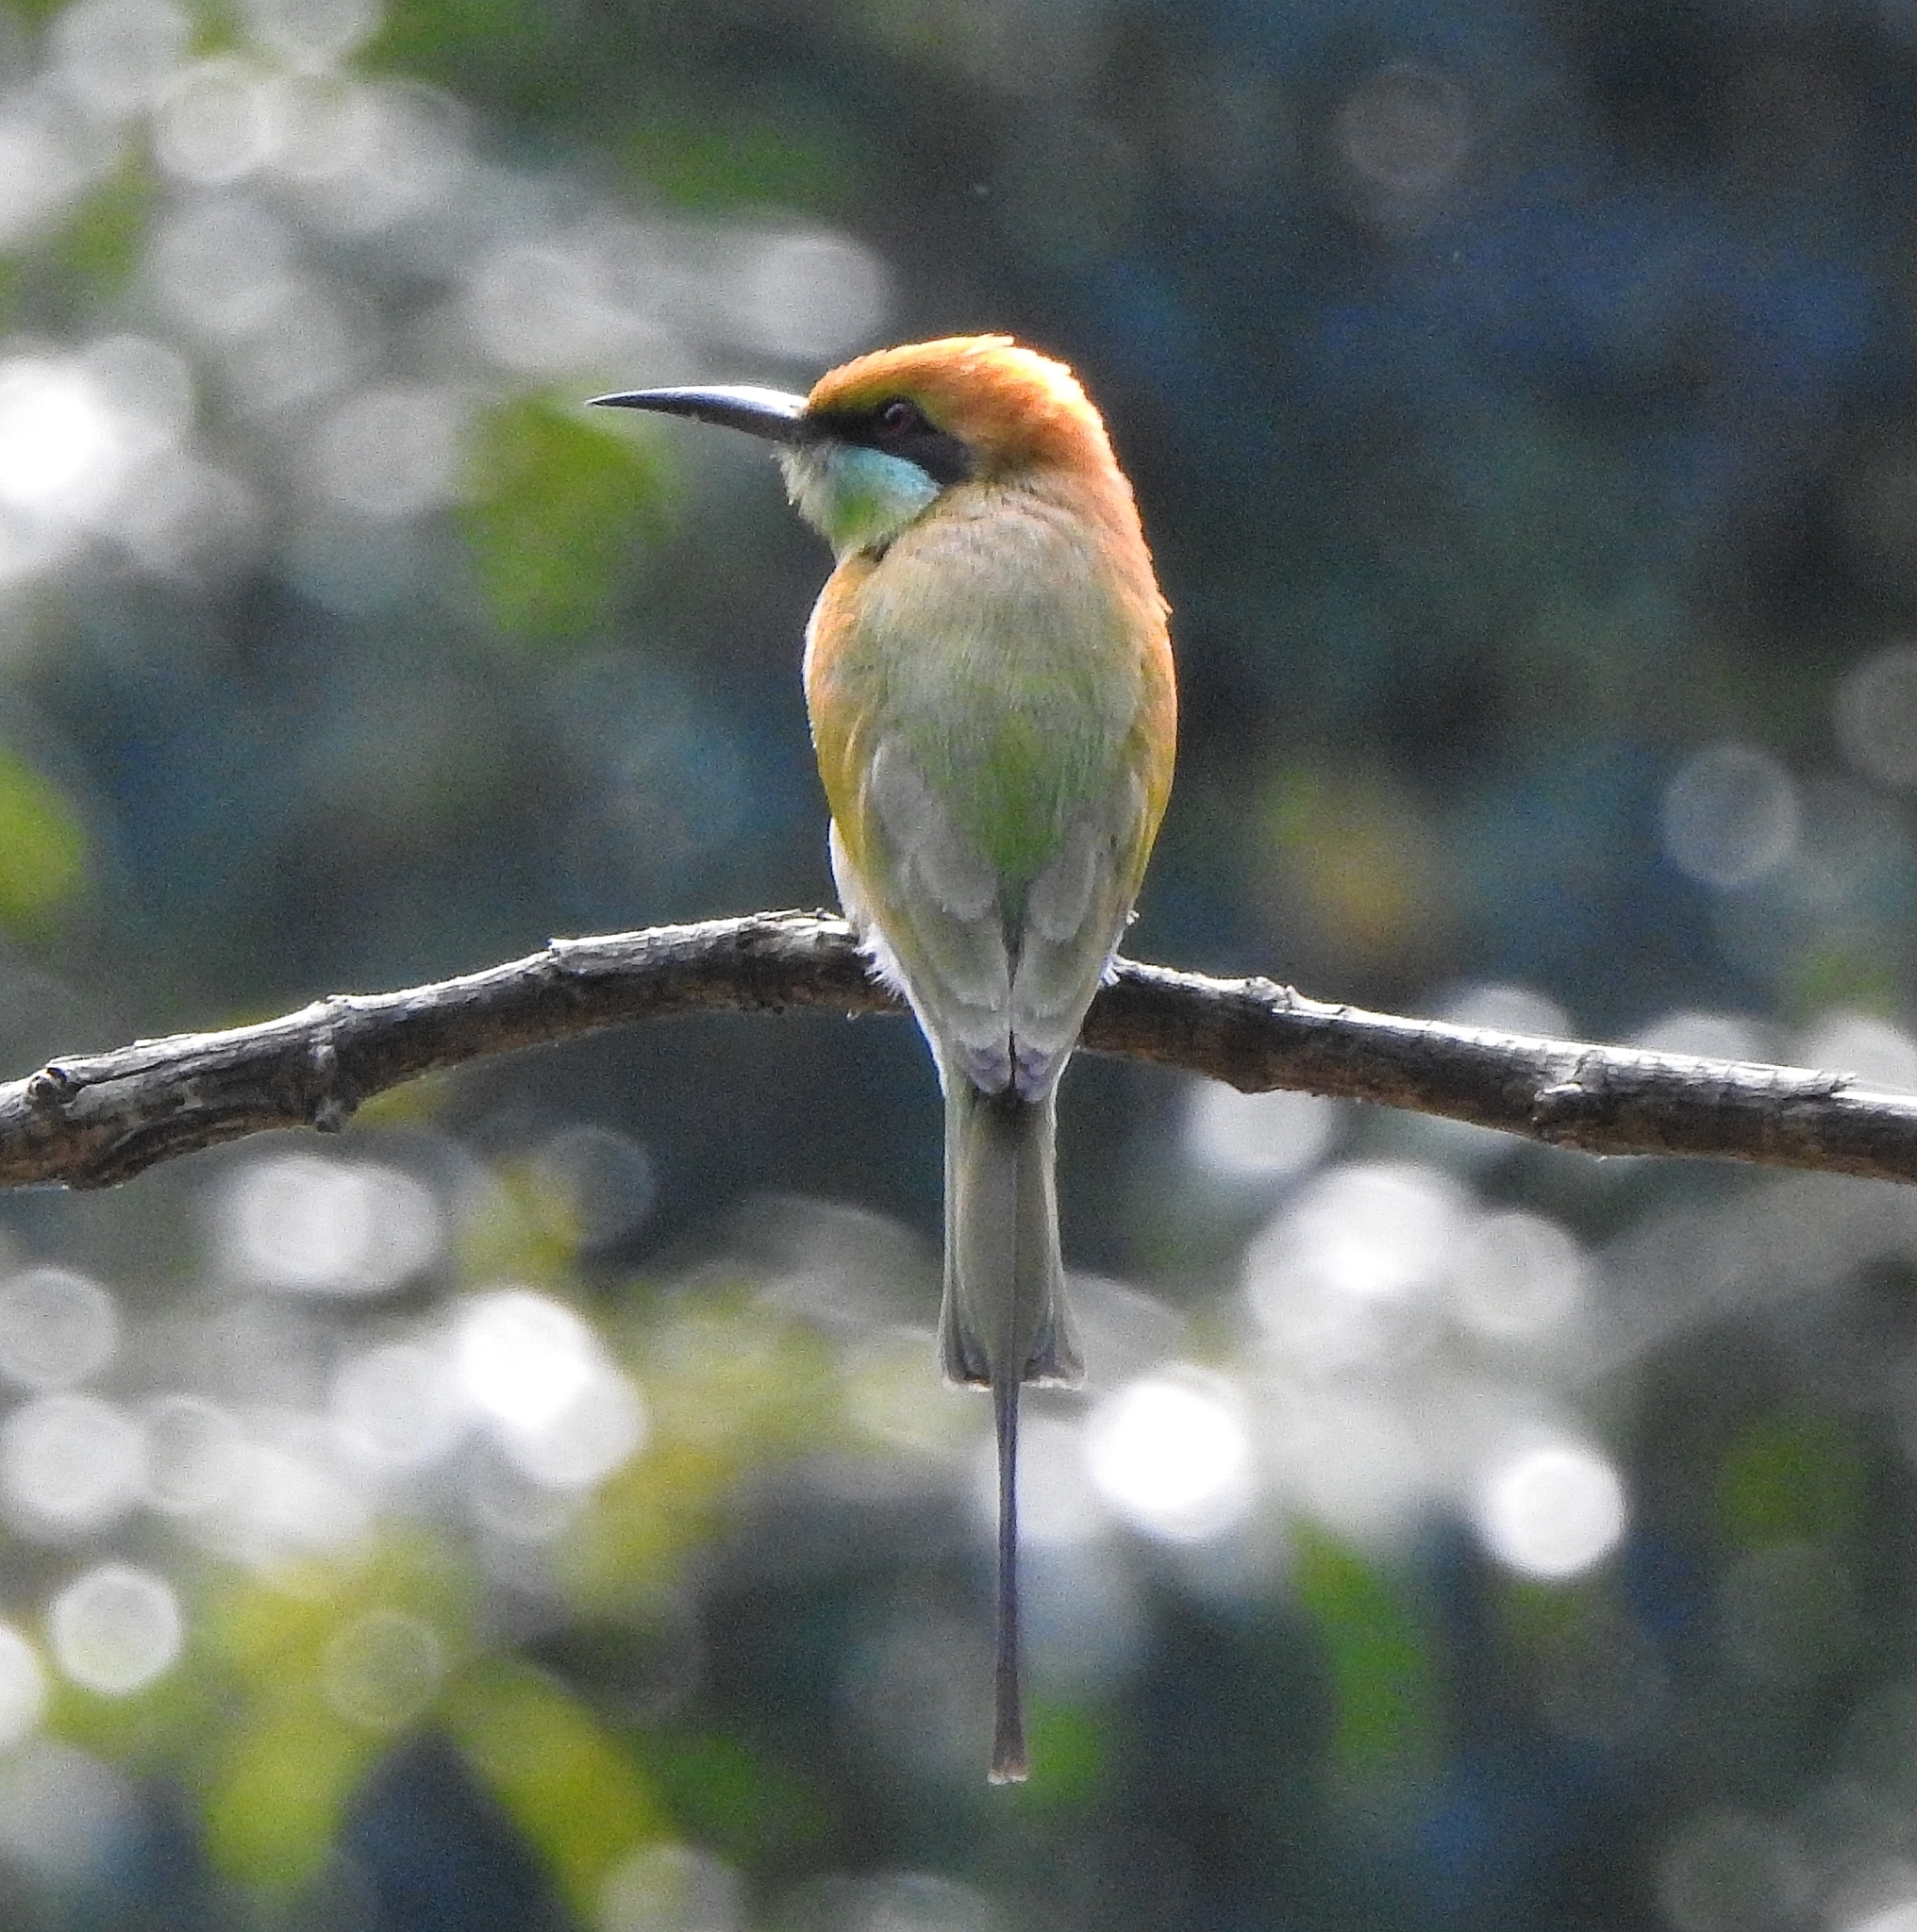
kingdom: Animalia
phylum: Chordata
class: Aves
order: Coraciiformes
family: Meropidae
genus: Merops
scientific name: Merops orientalis
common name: Green bee-eater
